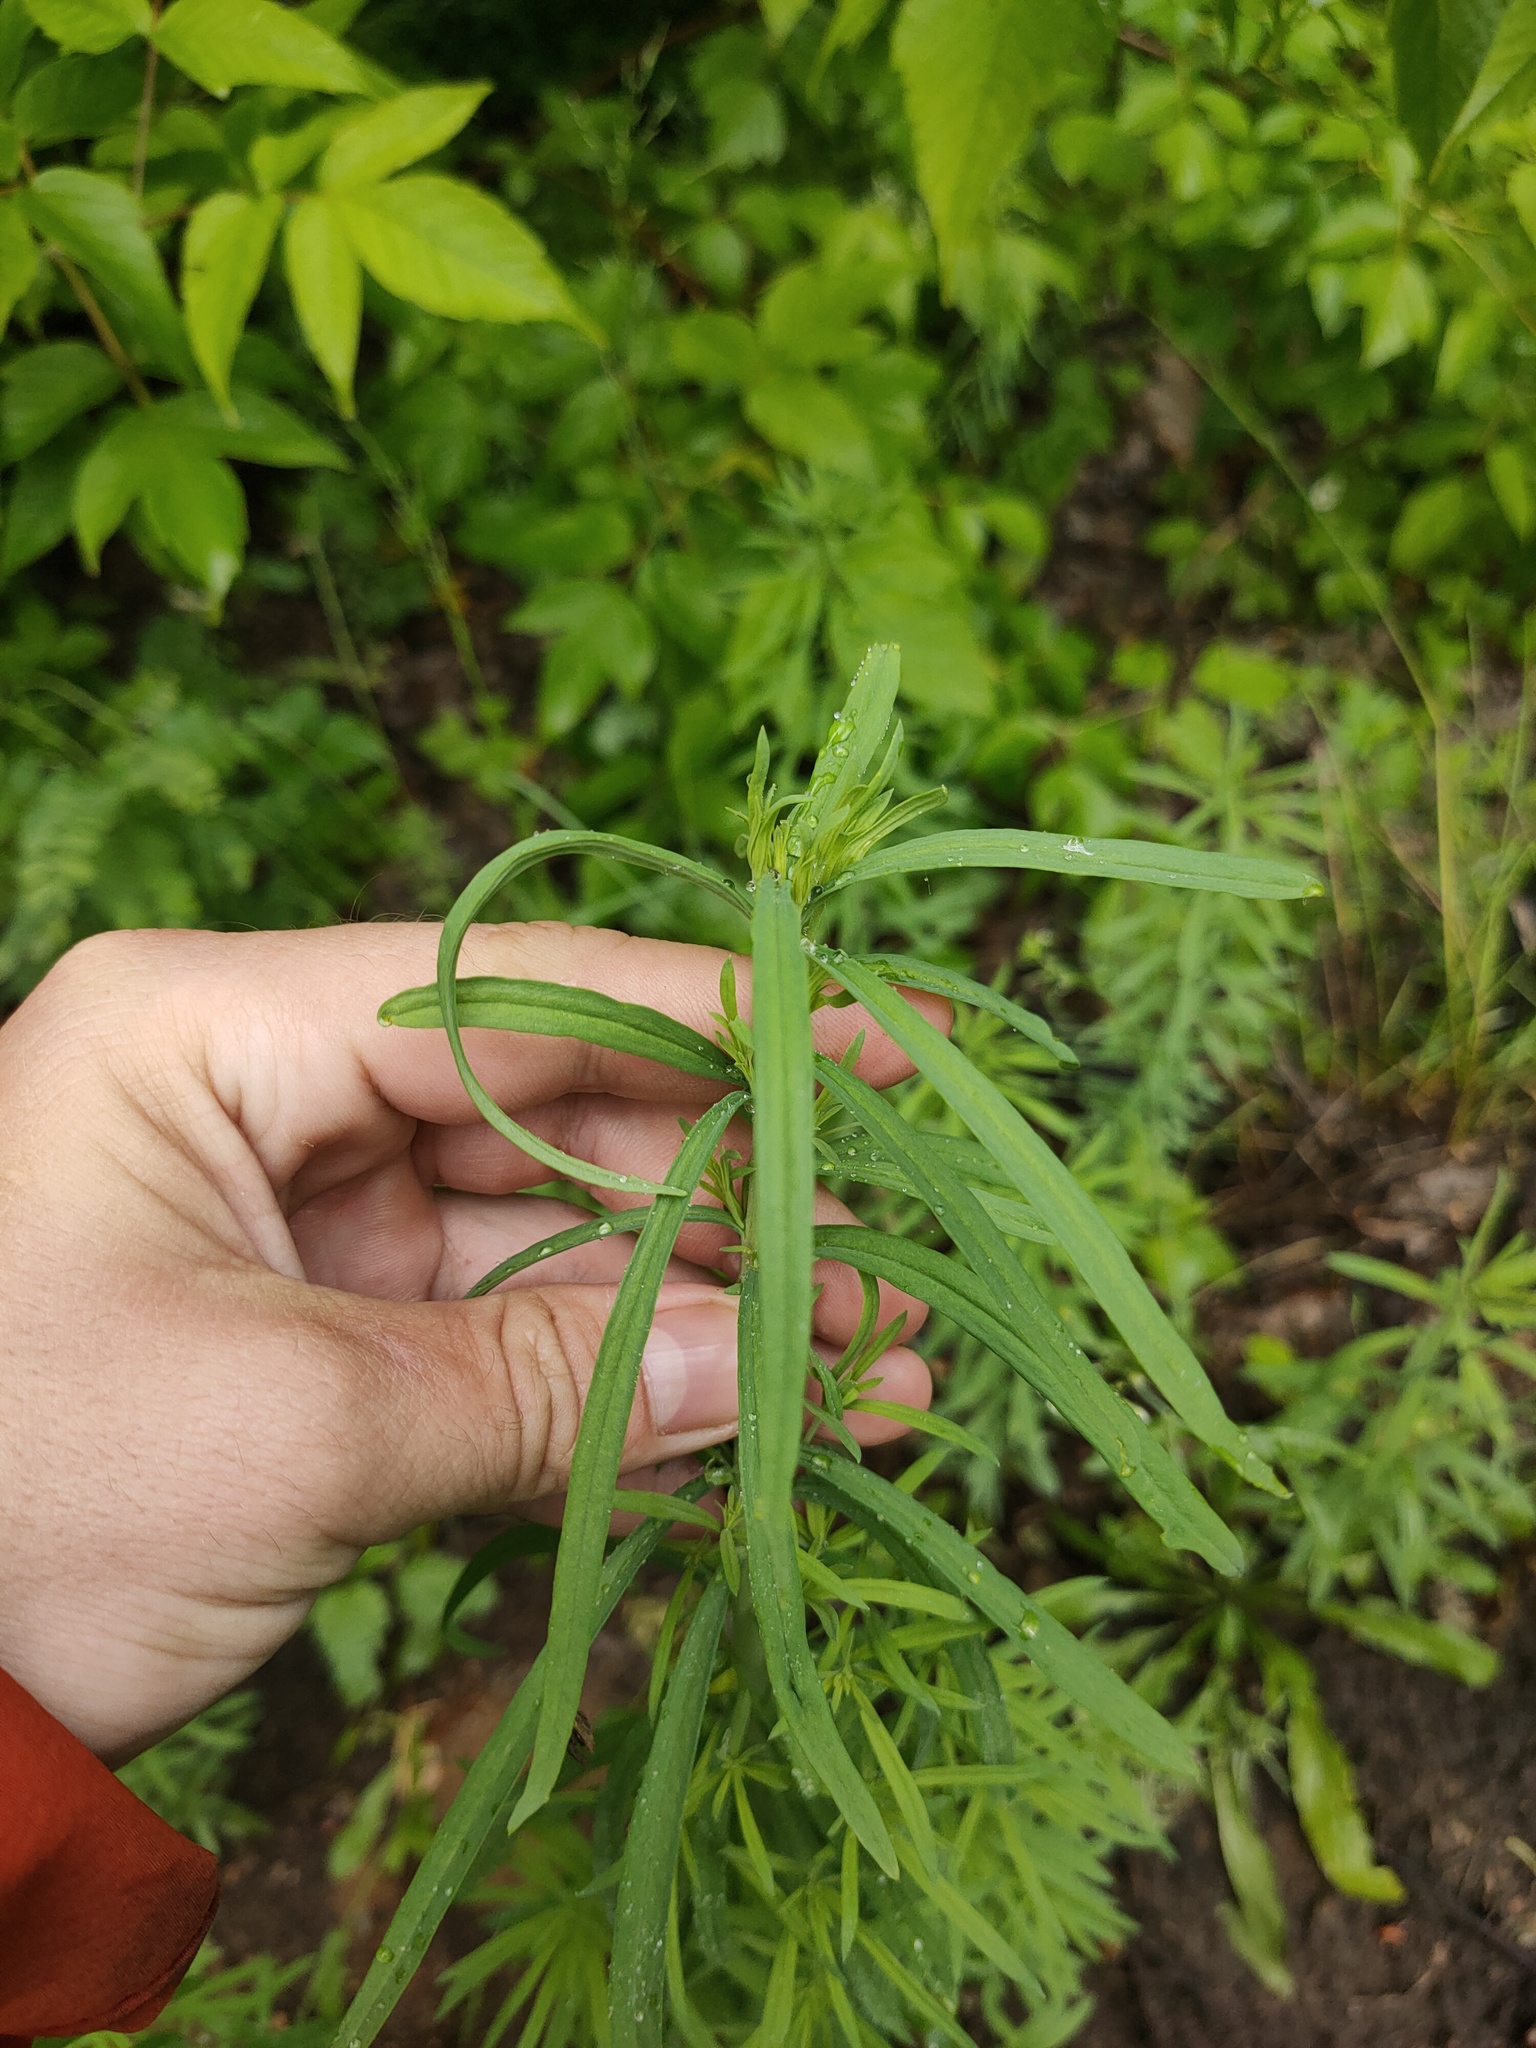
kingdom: Plantae
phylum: Tracheophyta
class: Magnoliopsida
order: Lamiales
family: Plantaginaceae
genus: Linaria
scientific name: Linaria vulgaris
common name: Butter and eggs
